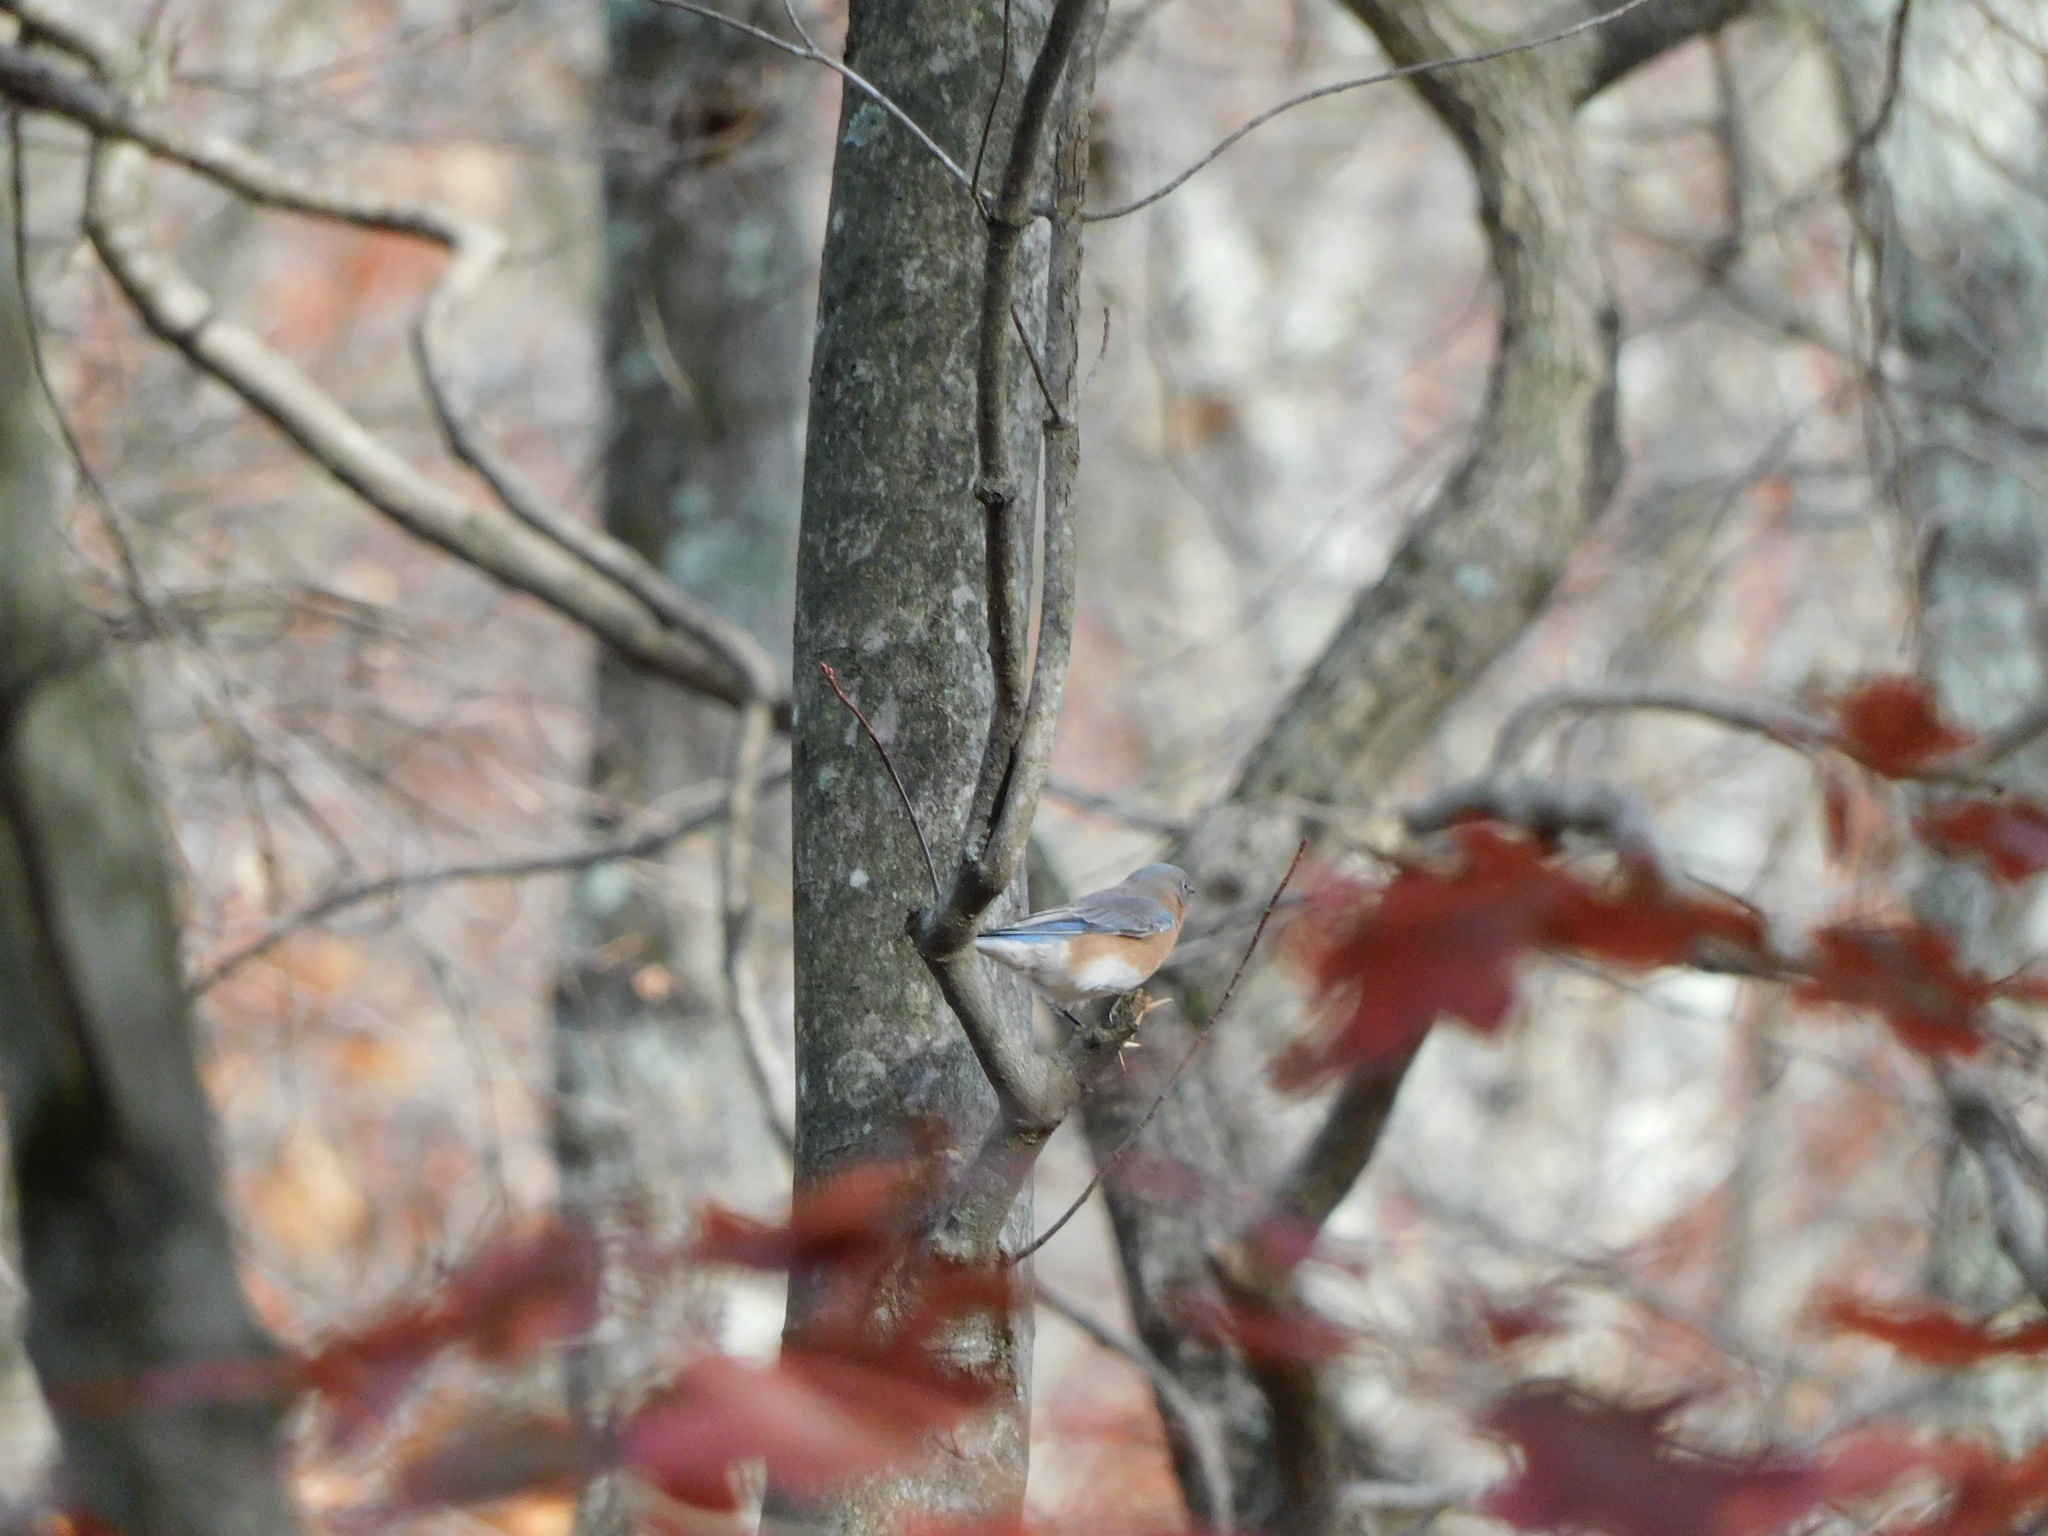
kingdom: Animalia
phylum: Chordata
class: Aves
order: Passeriformes
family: Turdidae
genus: Sialia
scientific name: Sialia sialis
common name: Eastern bluebird
